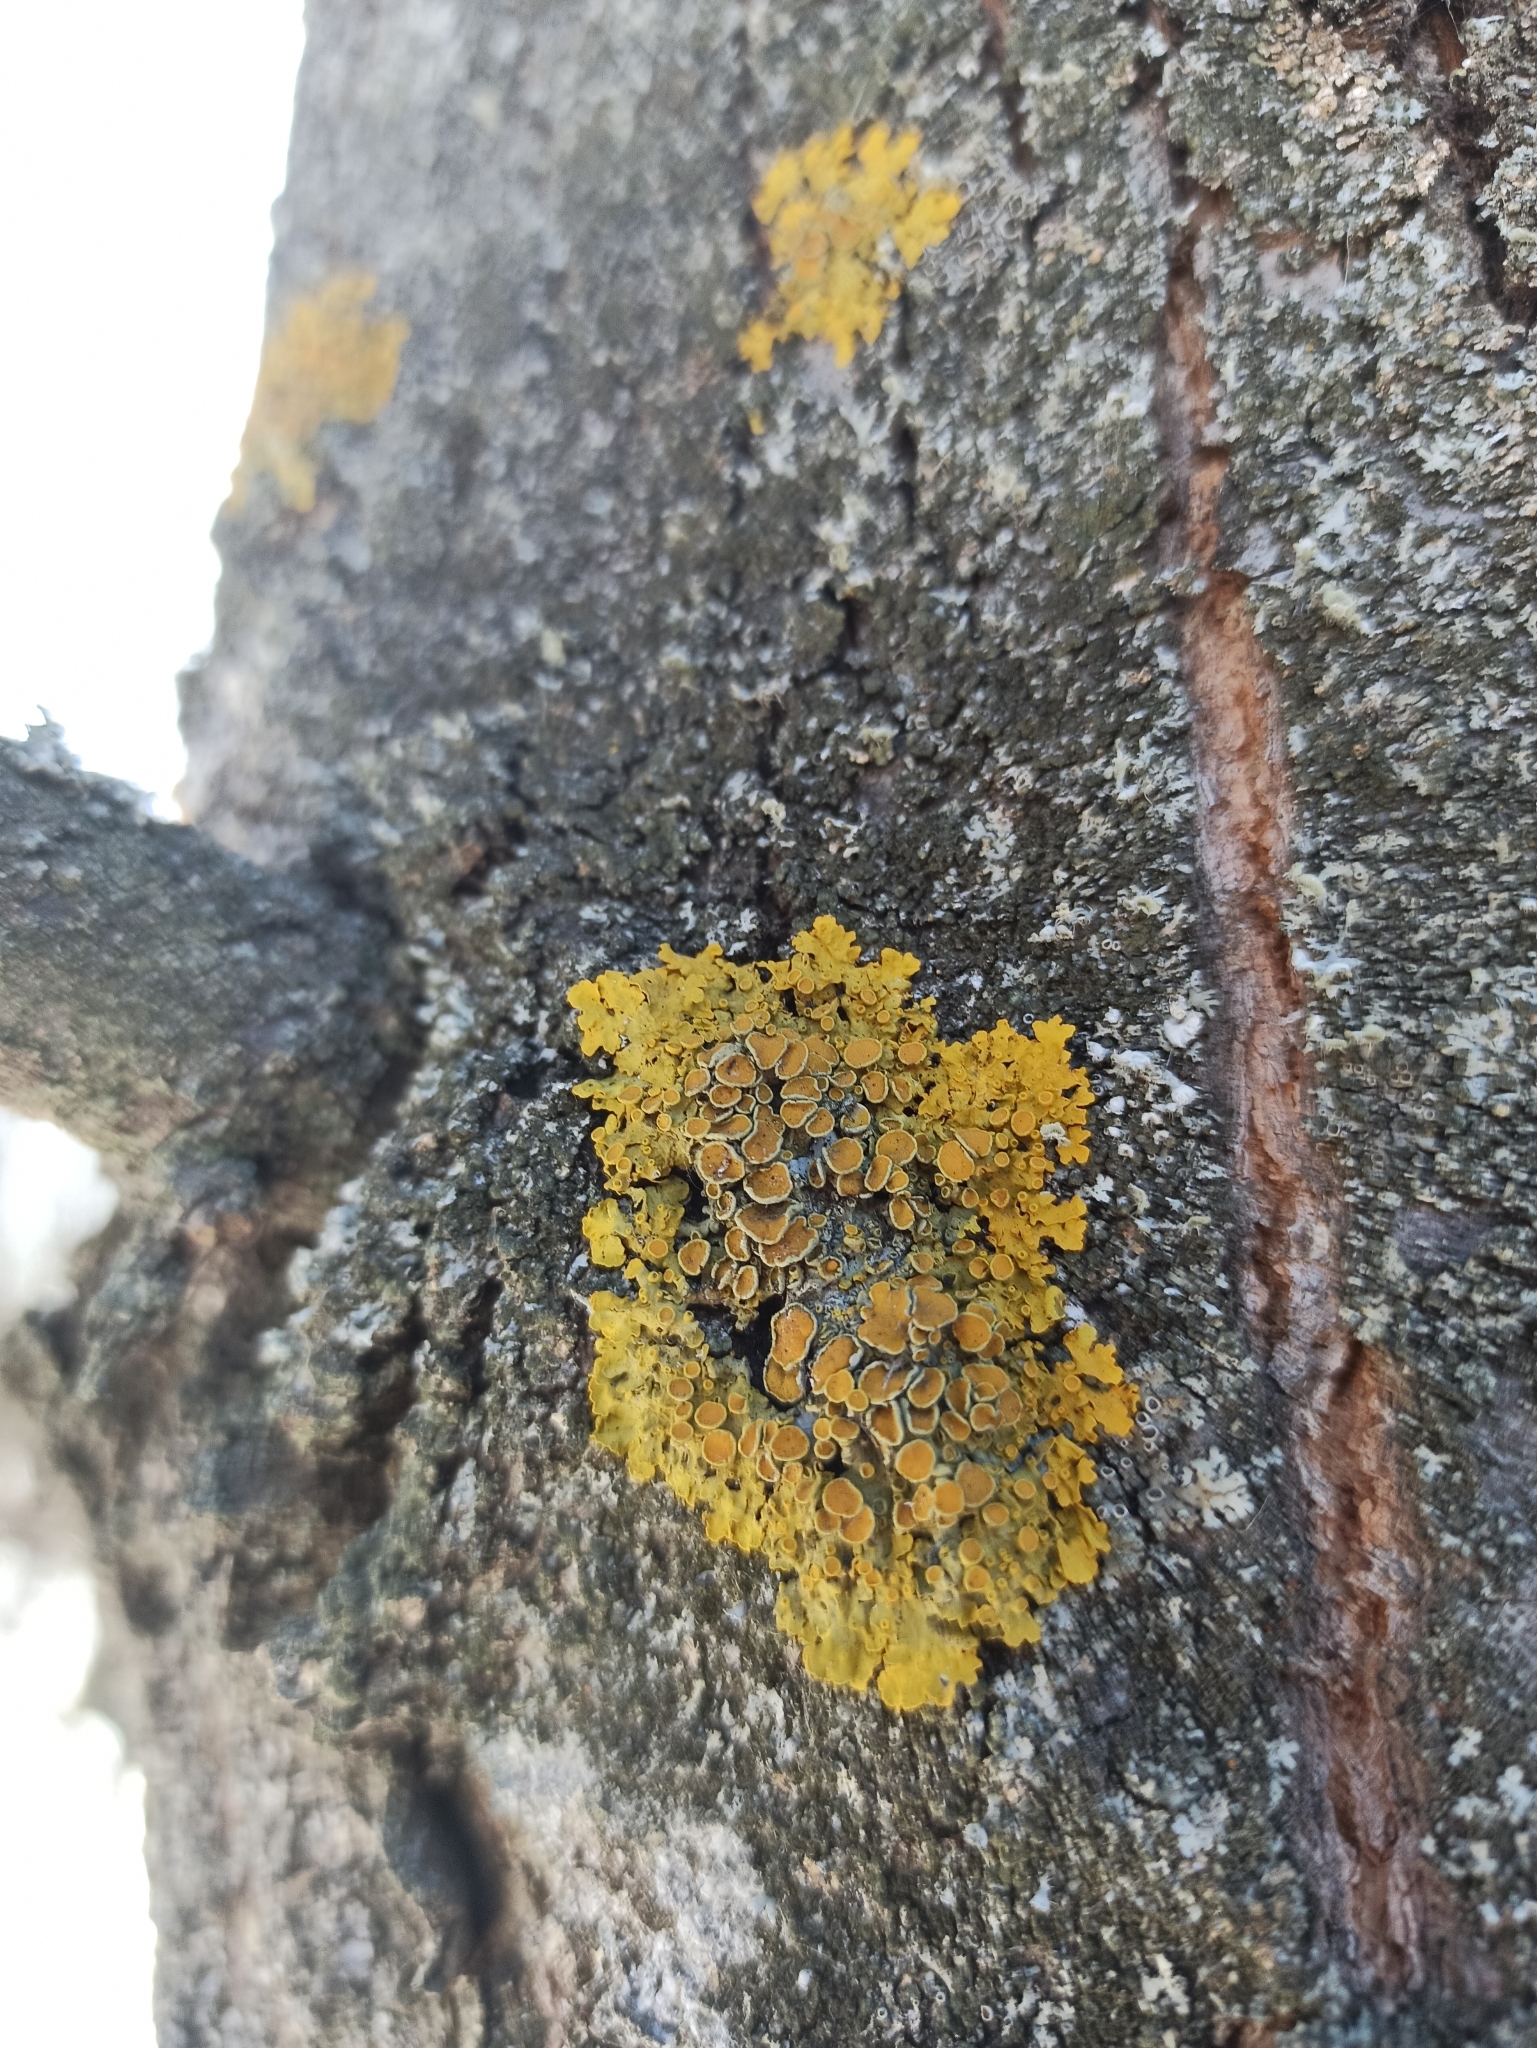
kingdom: Fungi
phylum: Ascomycota
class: Lecanoromycetes
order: Teloschistales
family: Teloschistaceae
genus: Xanthoria
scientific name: Xanthoria parietina
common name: Common orange lichen
